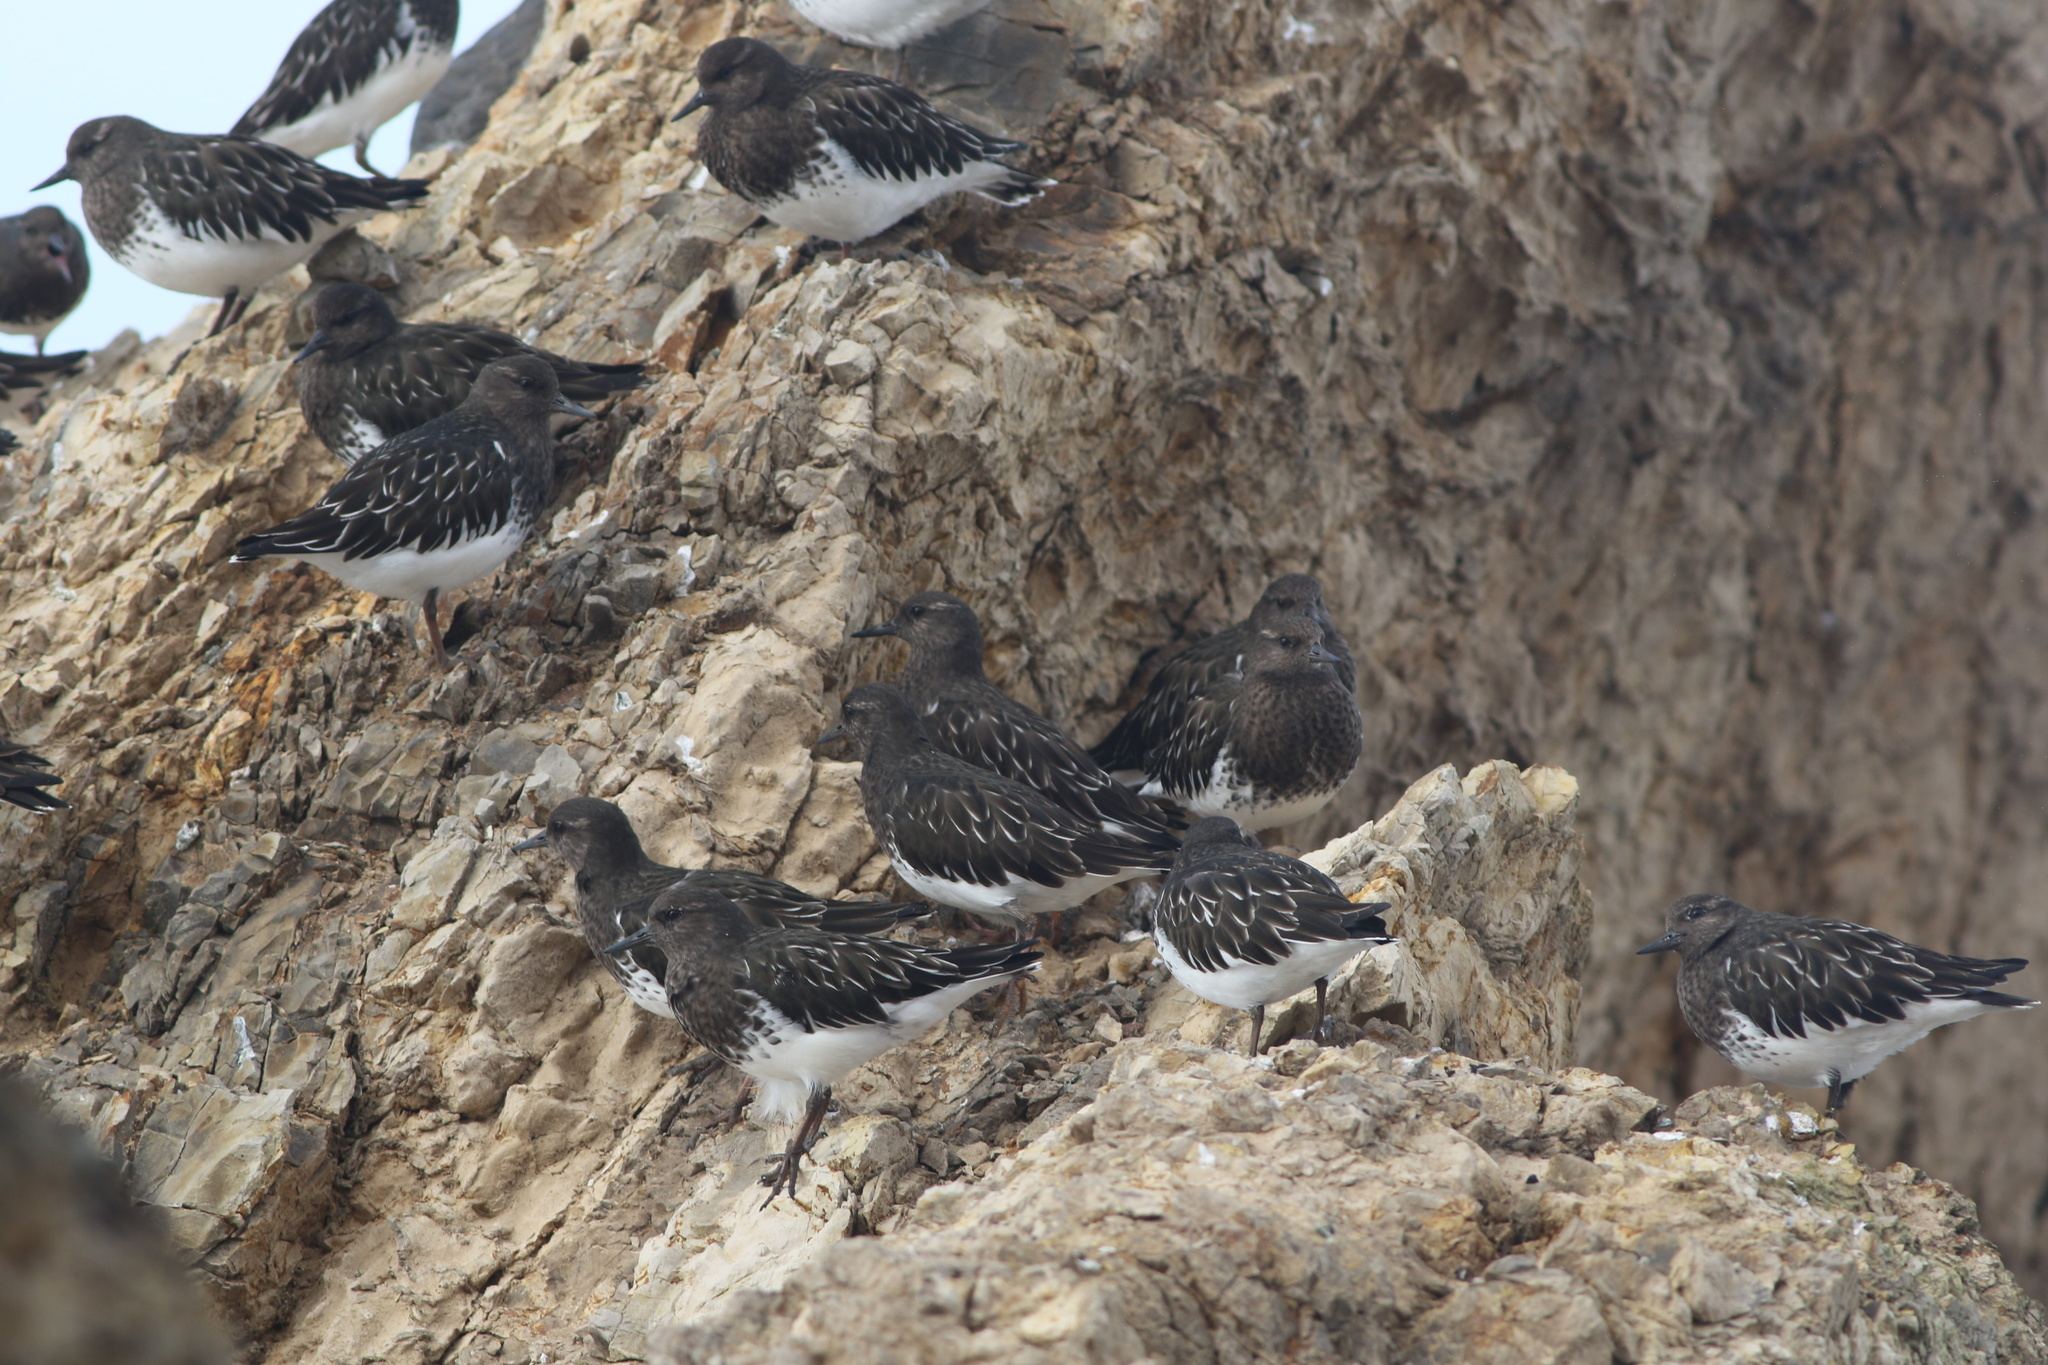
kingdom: Animalia
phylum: Chordata
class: Aves
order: Charadriiformes
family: Scolopacidae
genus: Arenaria
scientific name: Arenaria melanocephala
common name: Black turnstone
